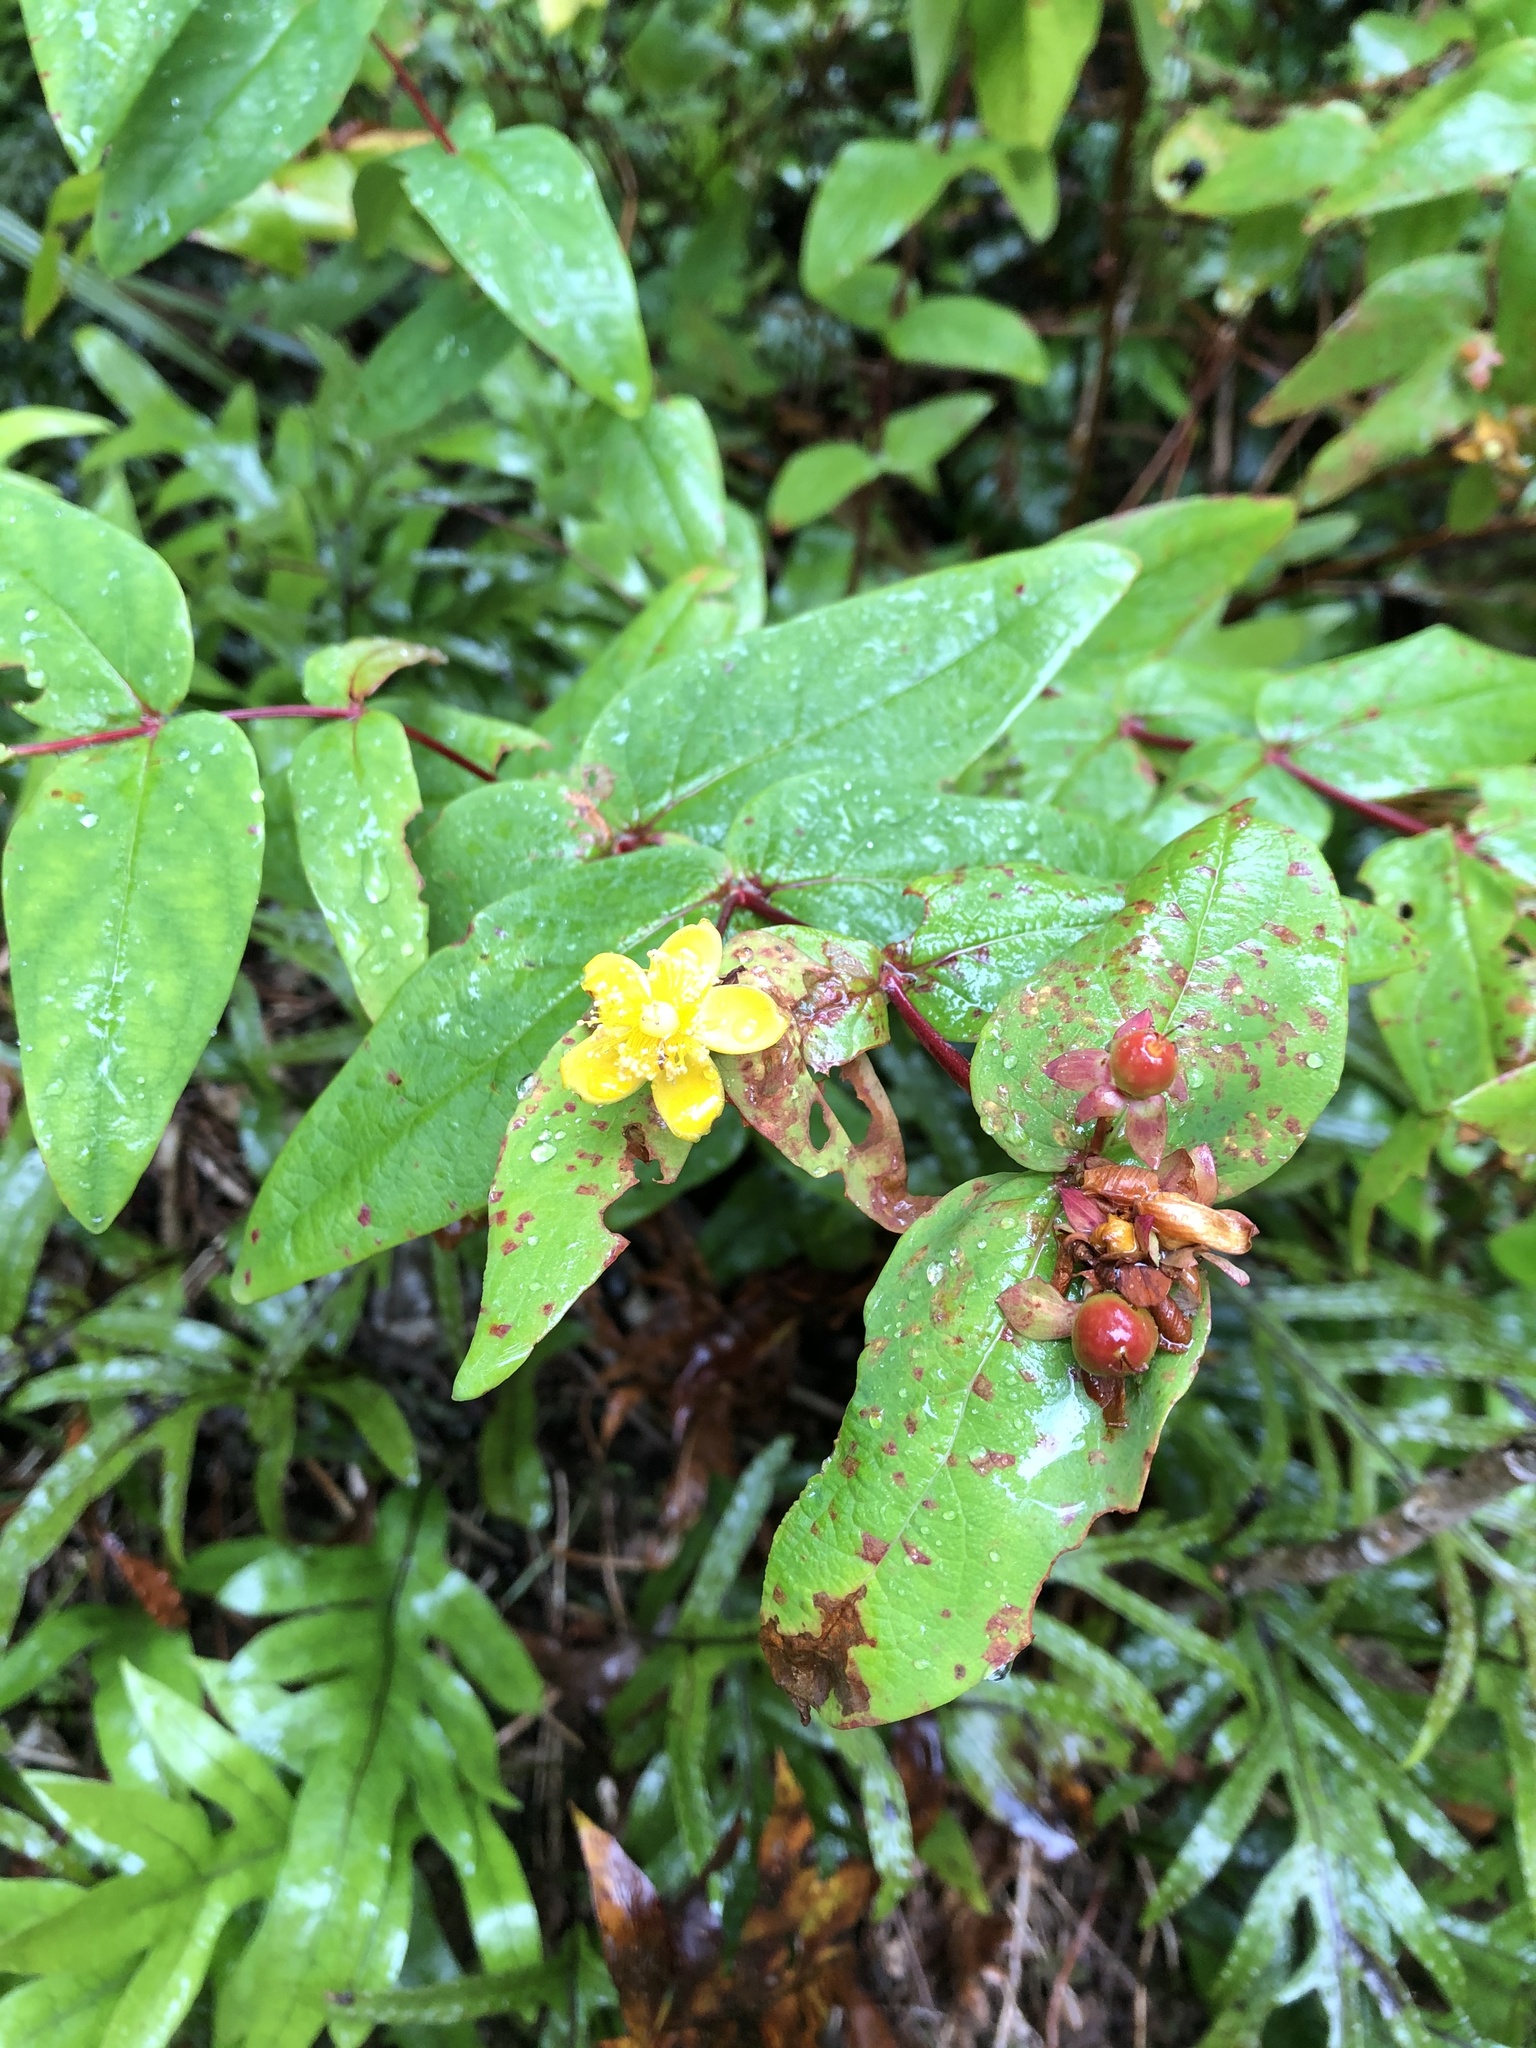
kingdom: Plantae
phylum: Tracheophyta
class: Magnoliopsida
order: Malpighiales
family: Hypericaceae
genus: Hypericum
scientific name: Hypericum androsaemum
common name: Sweet-amber
